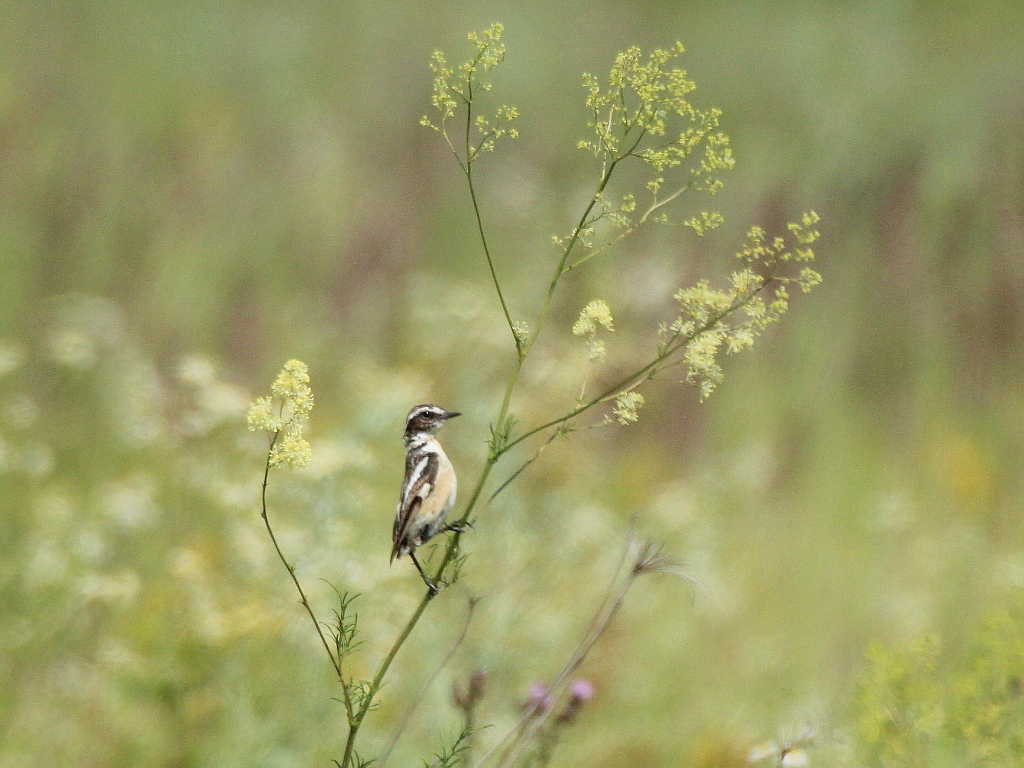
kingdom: Animalia
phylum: Chordata
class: Aves
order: Passeriformes
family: Muscicapidae
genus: Saxicola
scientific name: Saxicola rubetra
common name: Whinchat
